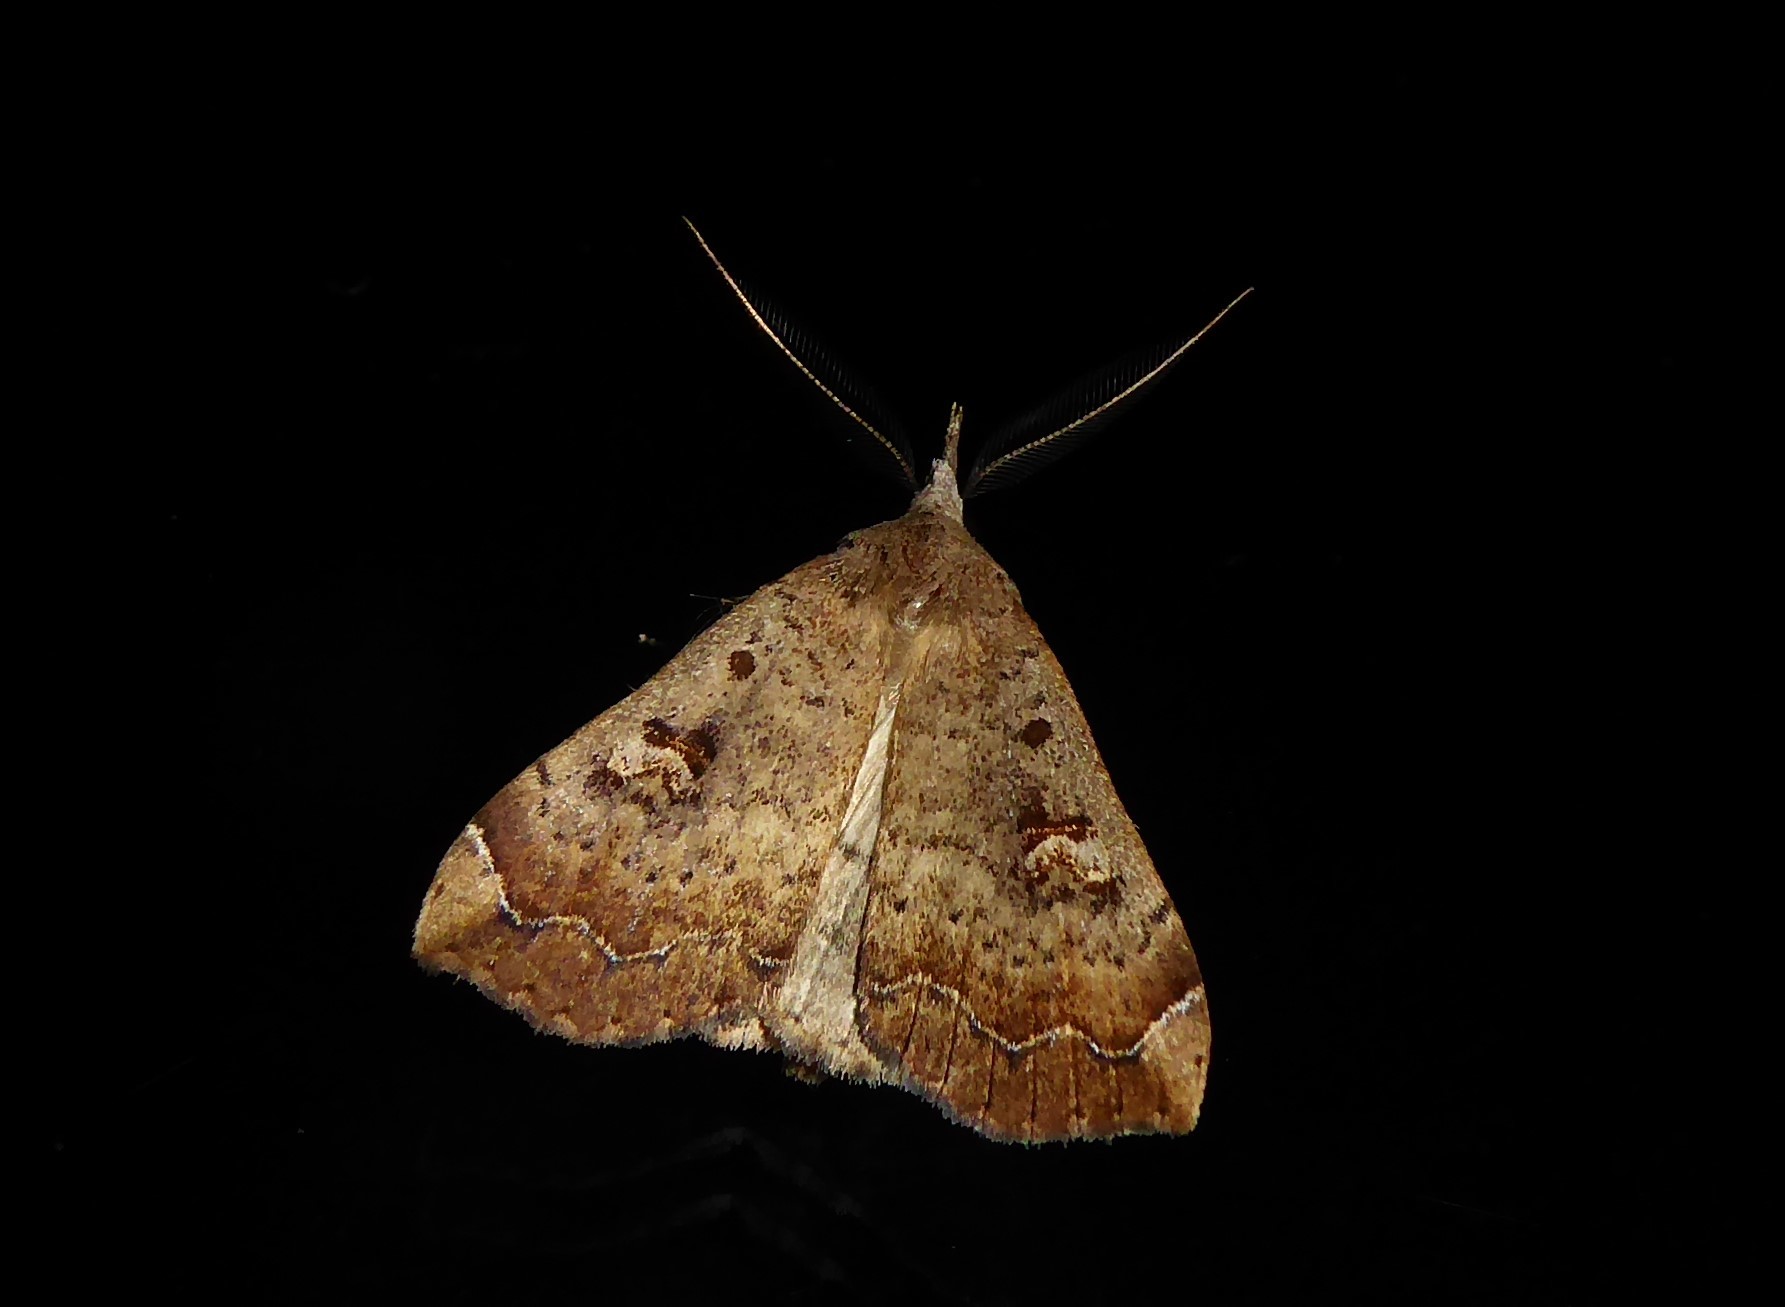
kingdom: Animalia
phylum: Arthropoda
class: Insecta
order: Lepidoptera
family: Erebidae
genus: Rhapsa
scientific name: Rhapsa scotosialis
